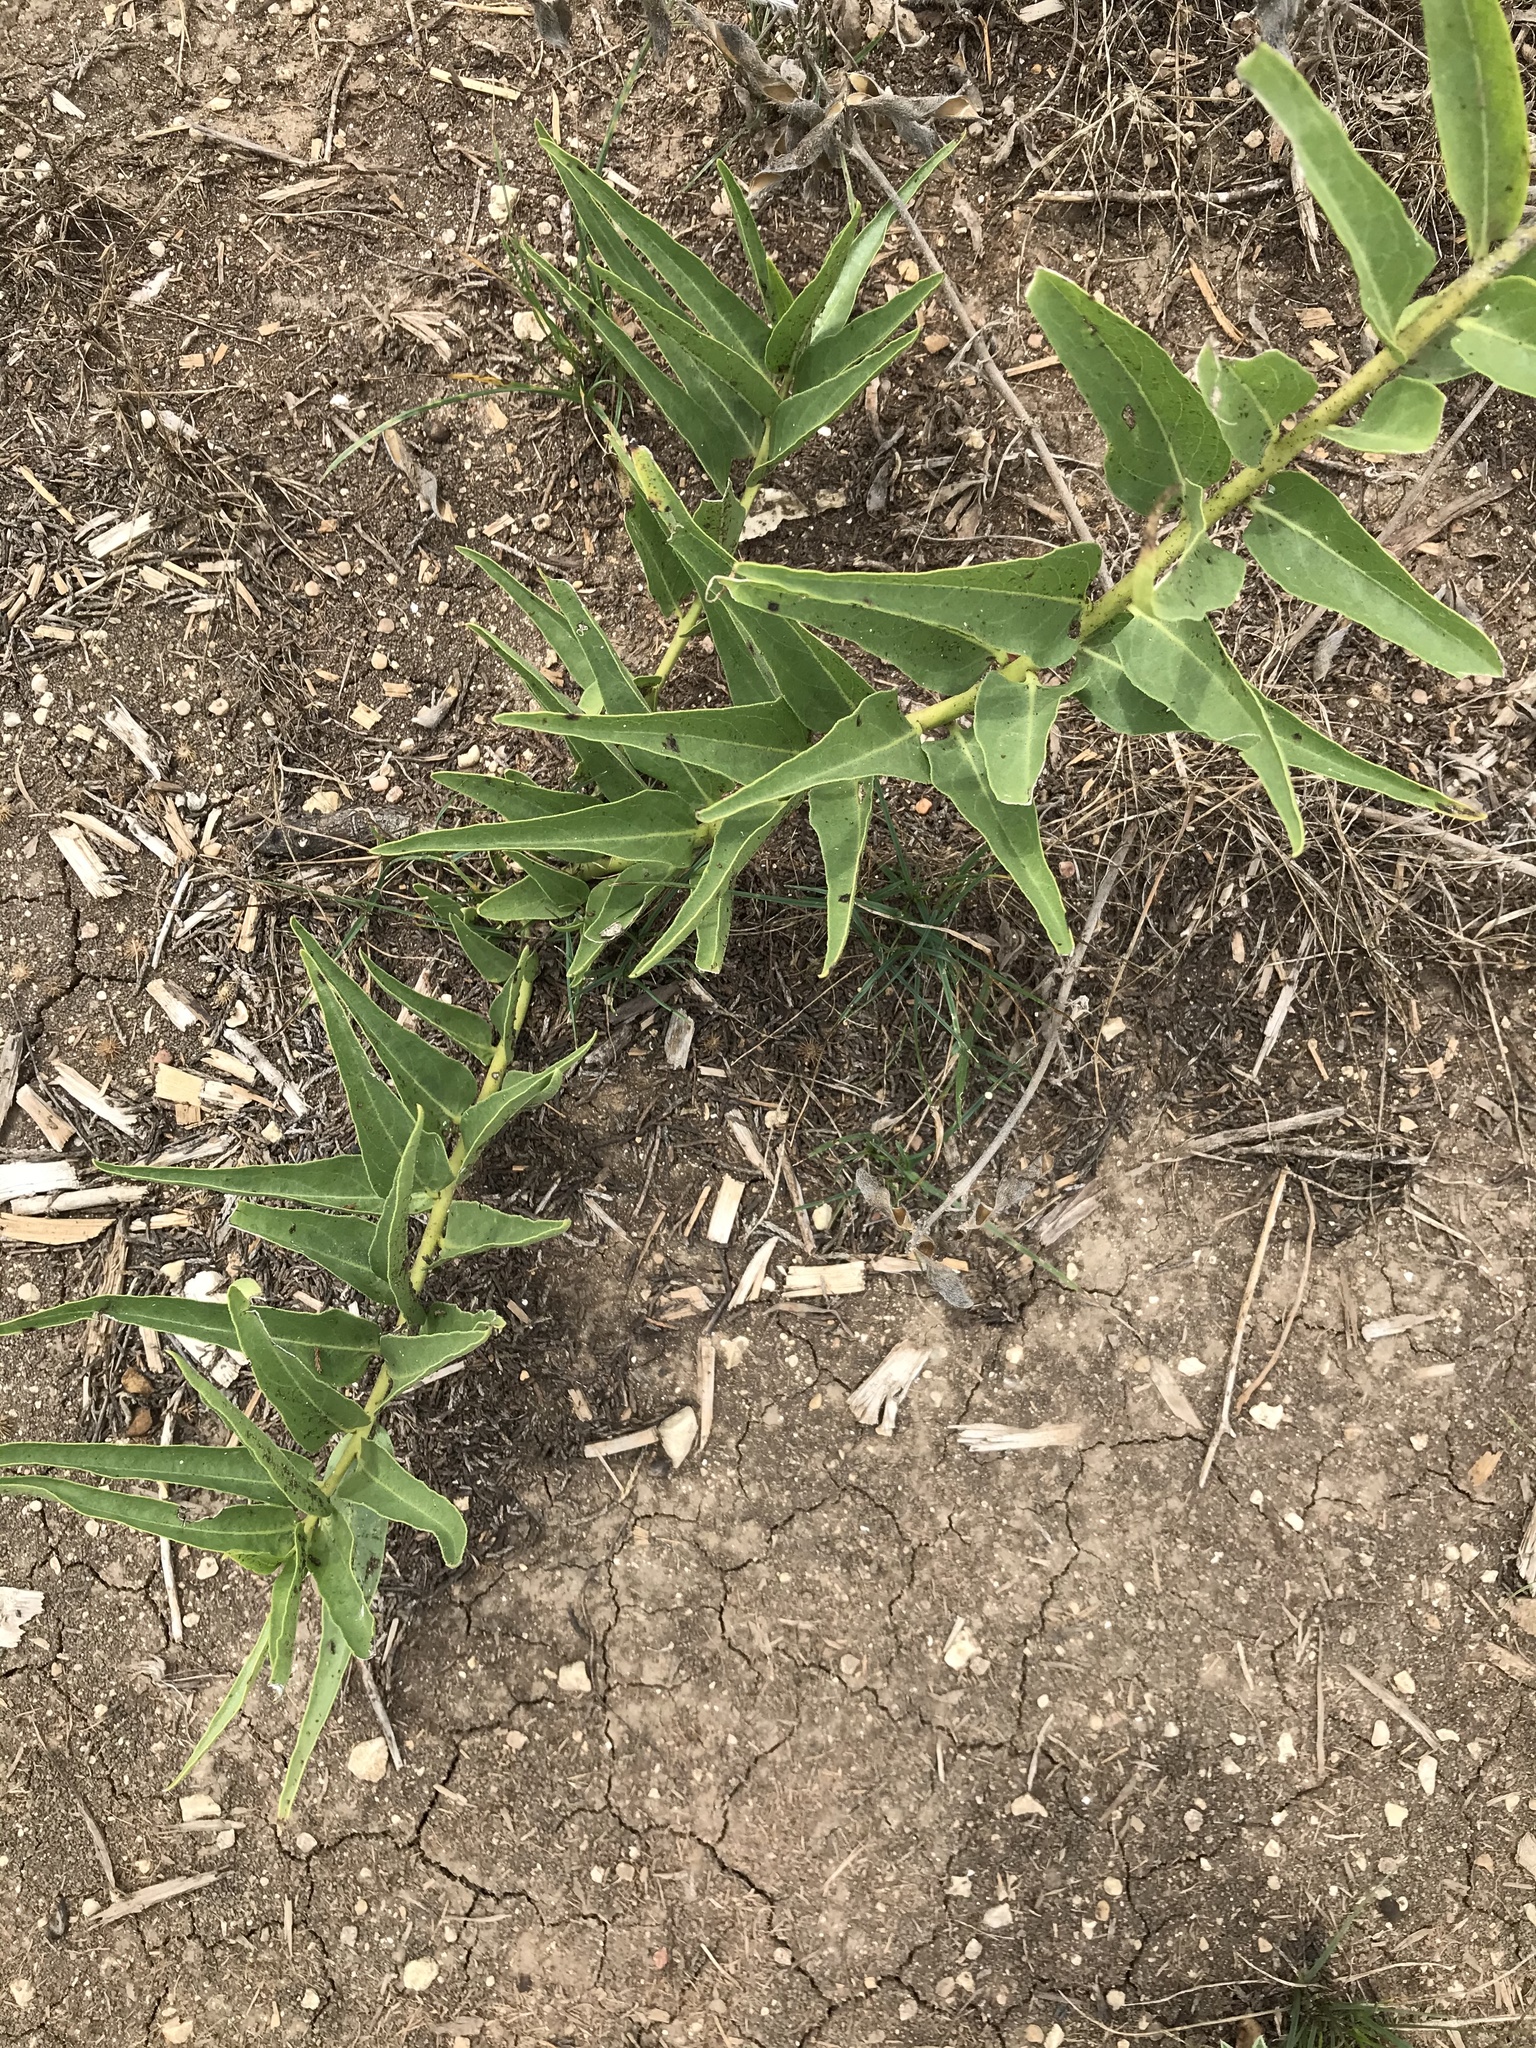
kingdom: Plantae
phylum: Tracheophyta
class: Magnoliopsida
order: Gentianales
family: Apocynaceae
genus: Asclepias
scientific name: Asclepias asperula
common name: Antelope horns
